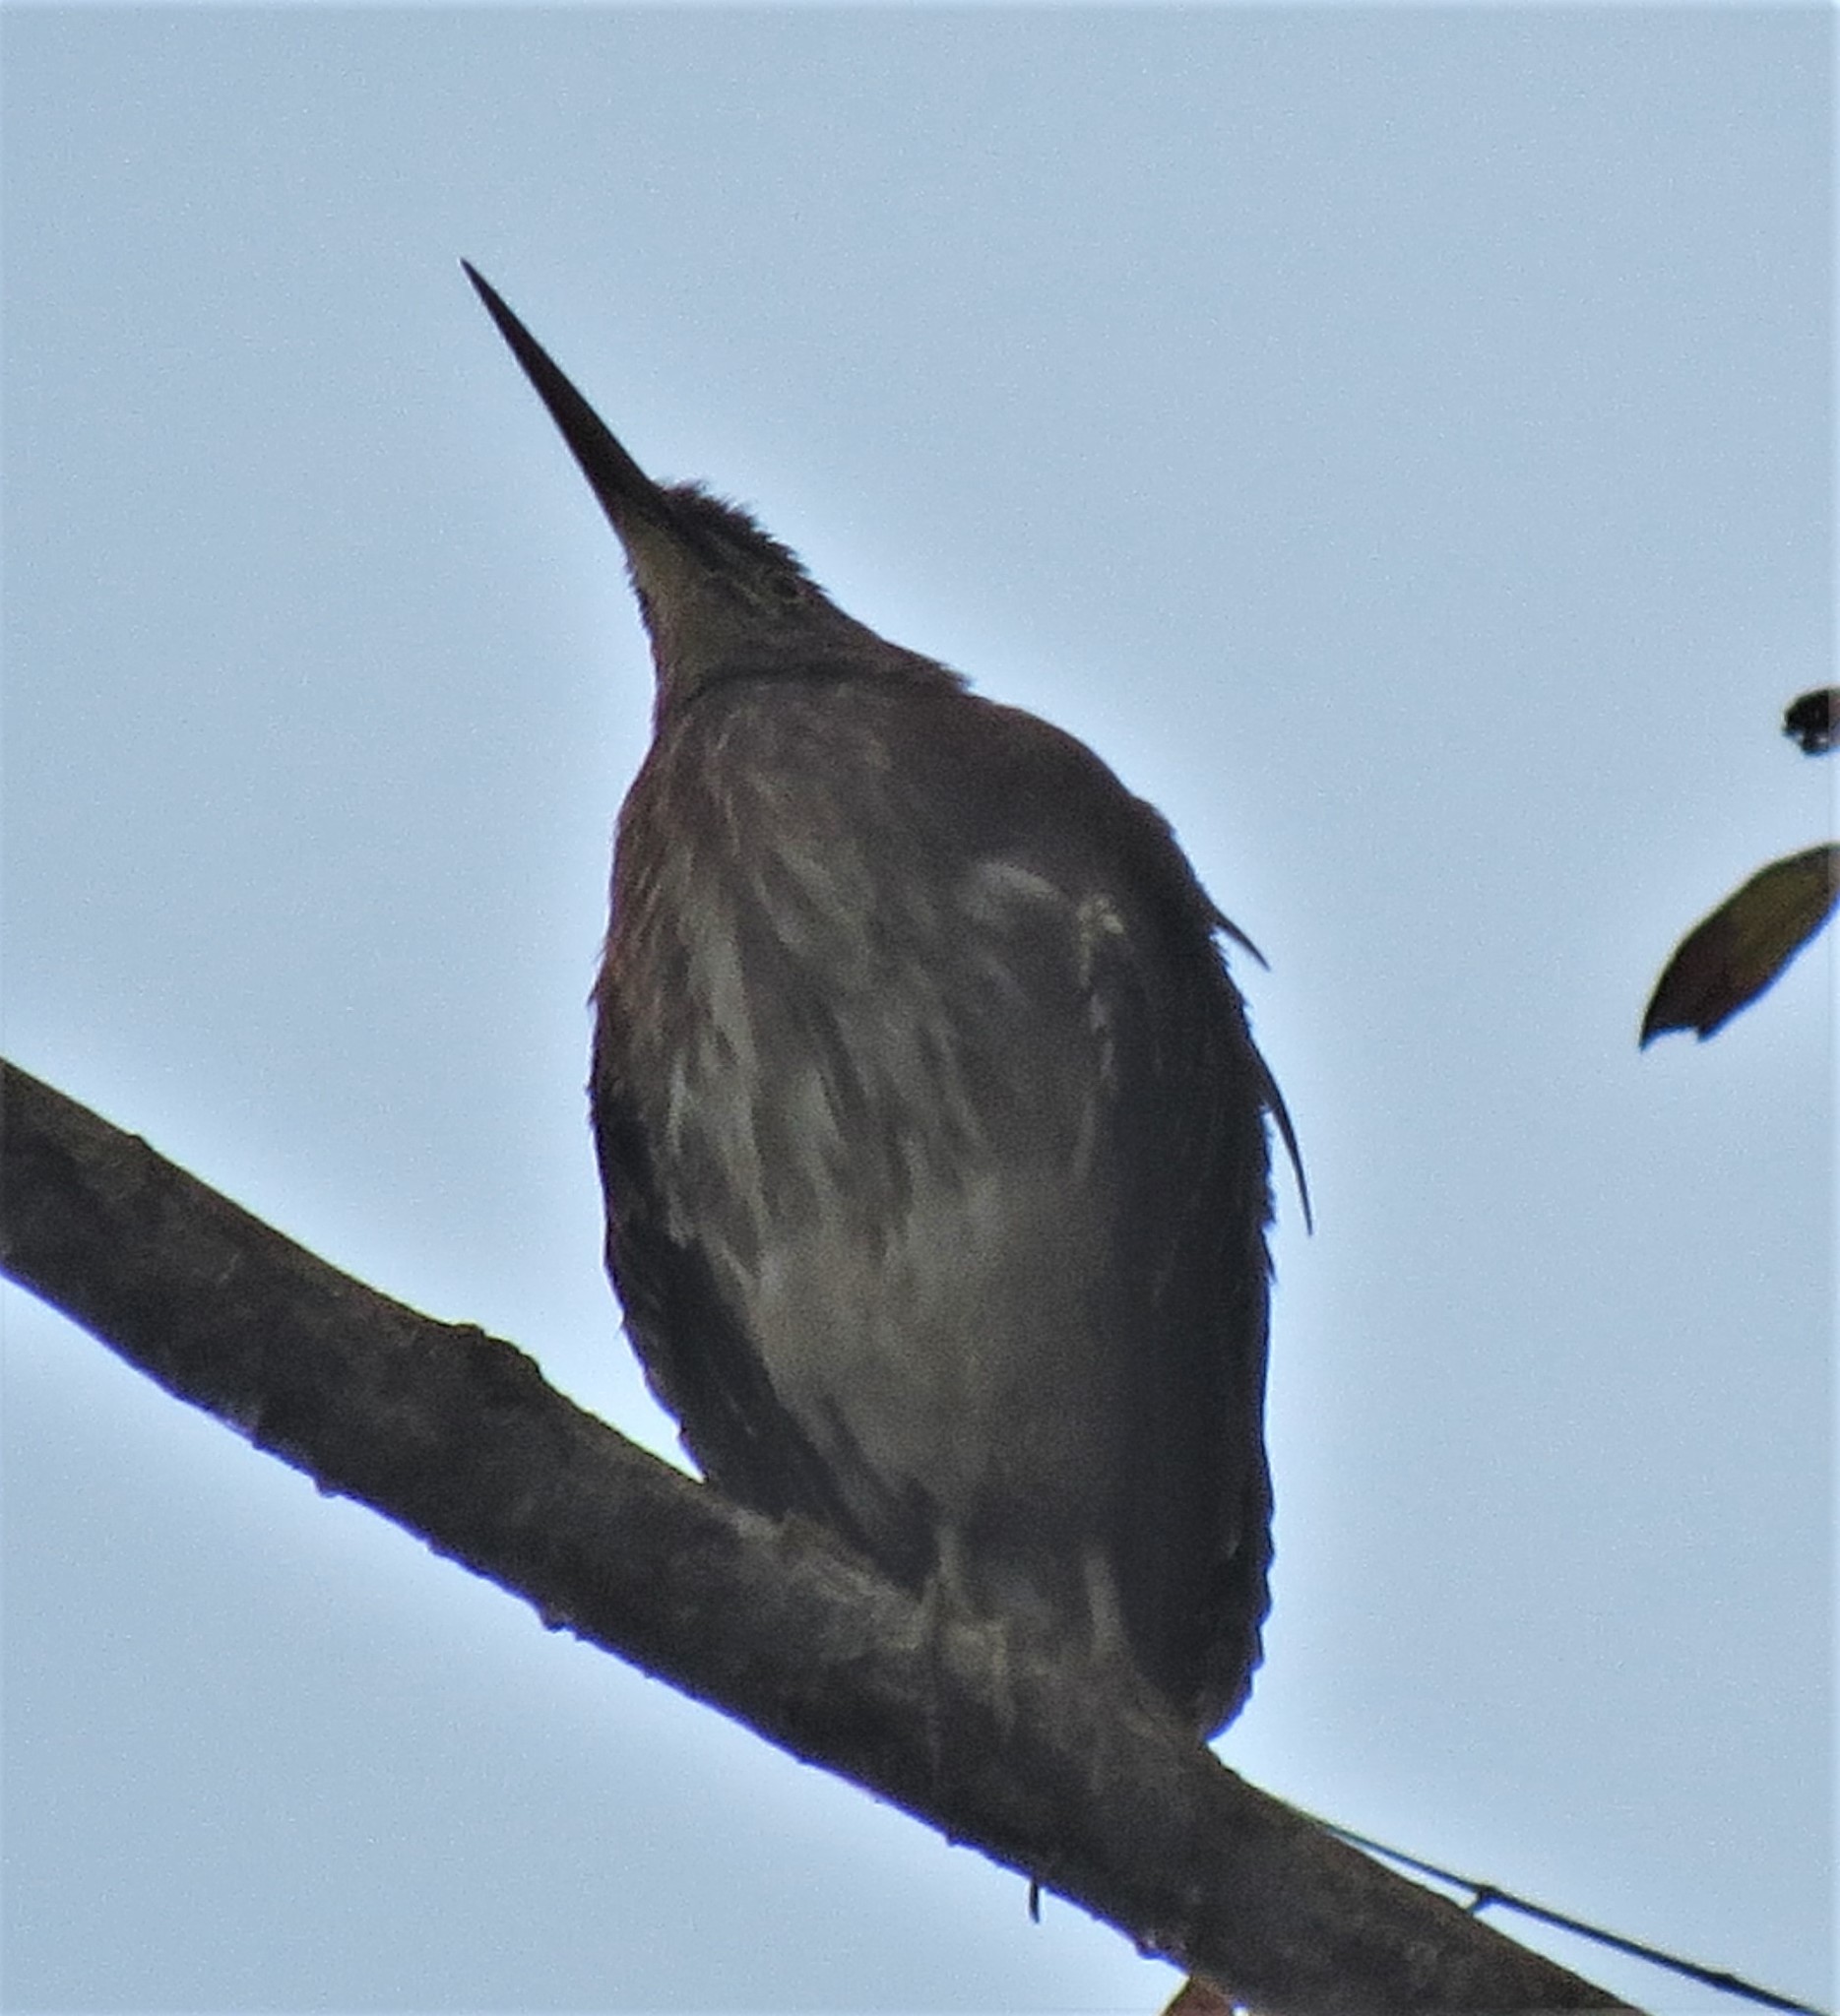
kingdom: Animalia
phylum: Chordata
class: Aves
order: Pelecaniformes
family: Ardeidae
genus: Tigrisoma
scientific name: Tigrisoma mexicanum
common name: Bare-throated tiger-heron
